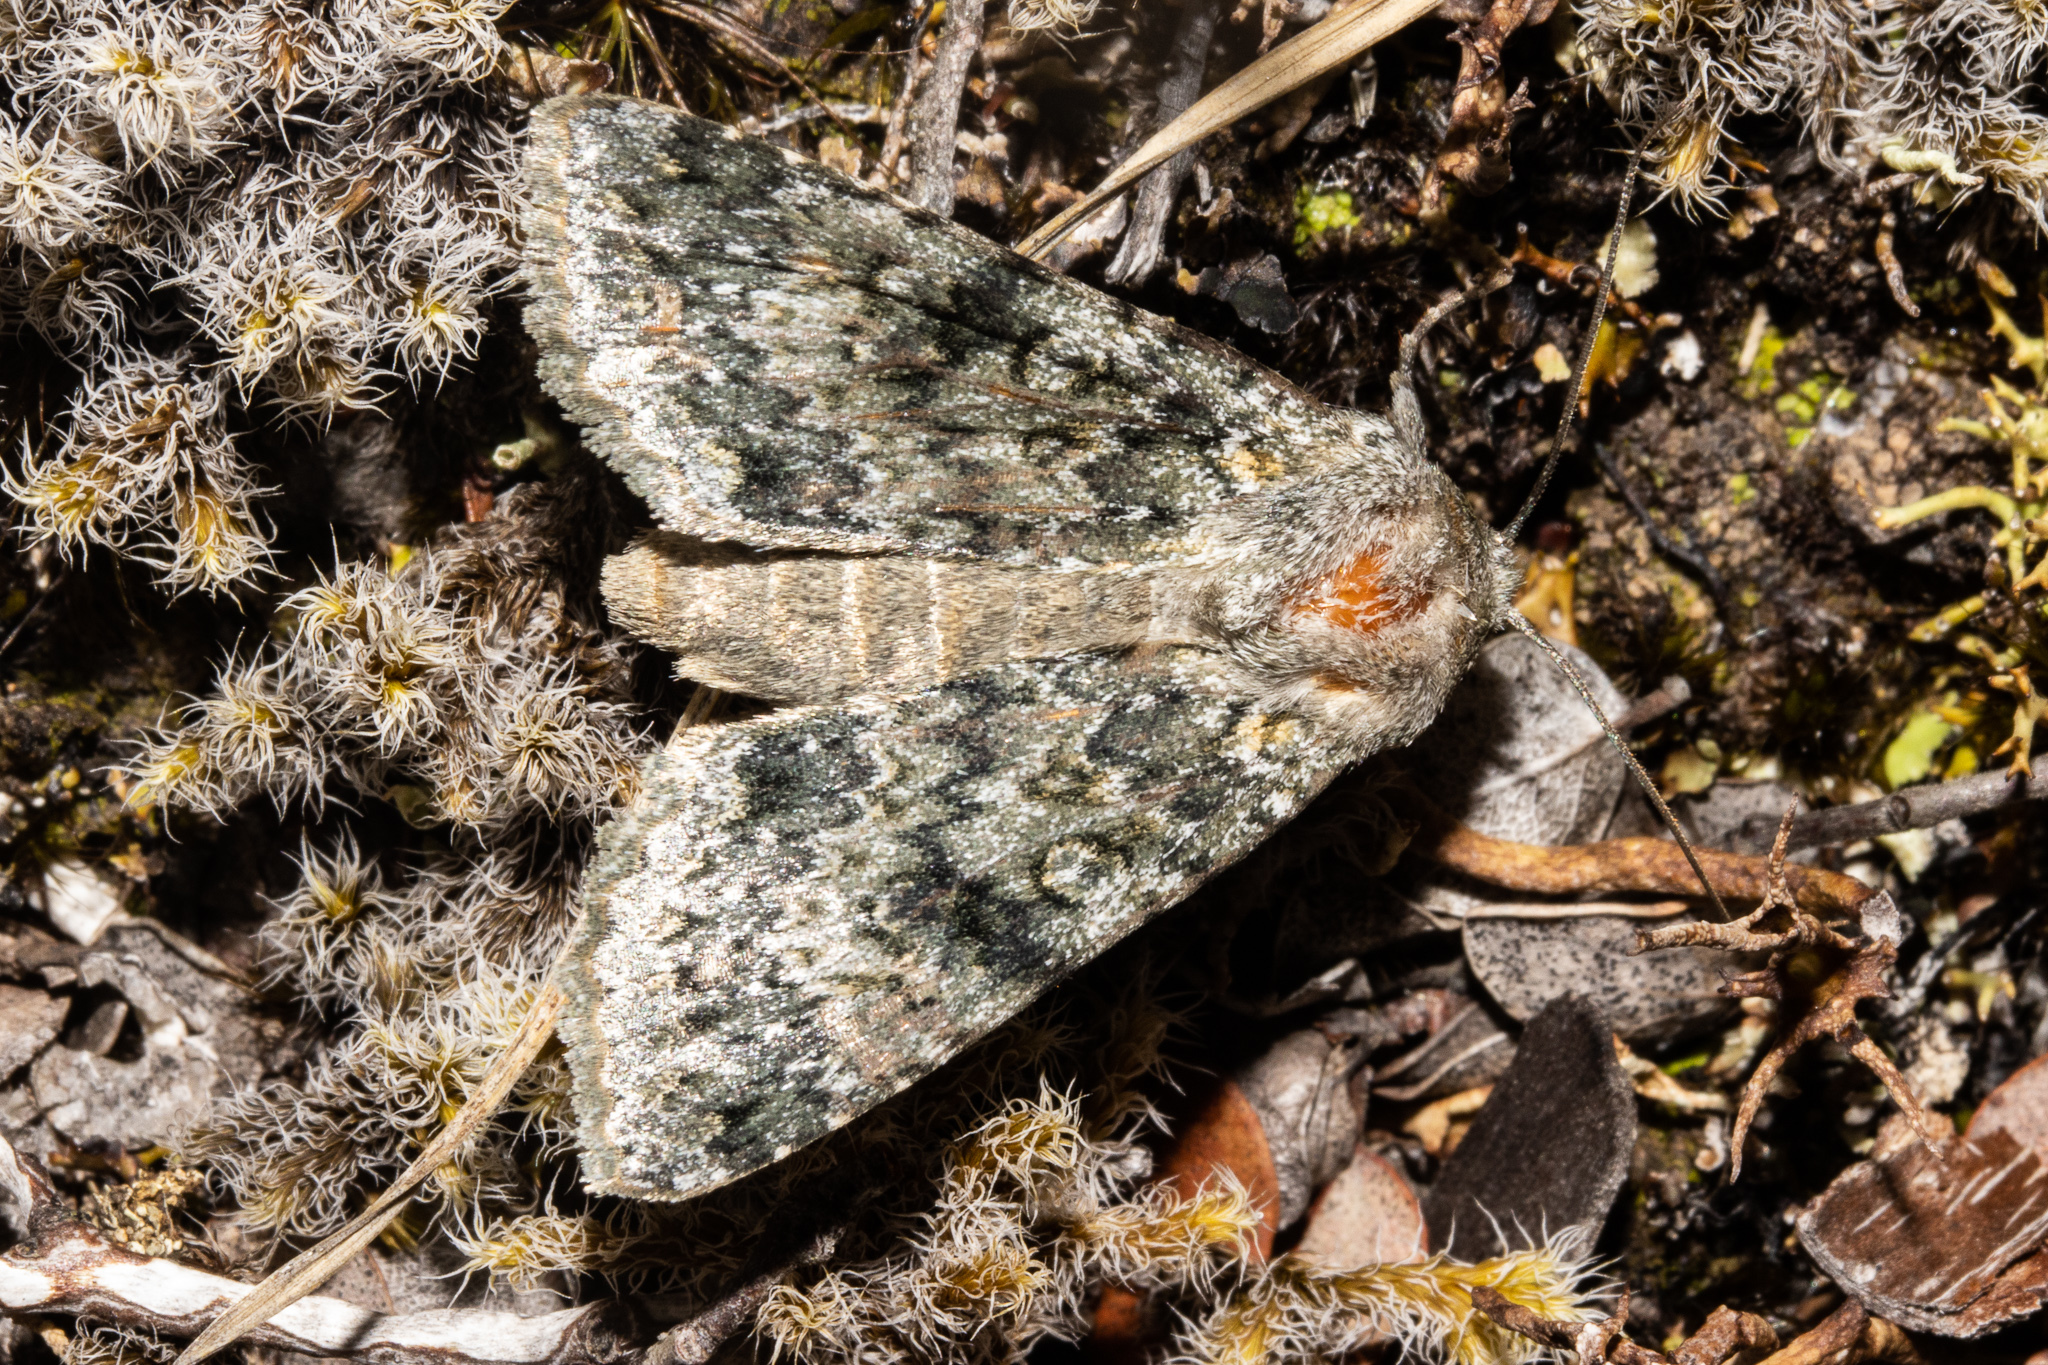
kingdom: Animalia
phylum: Arthropoda
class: Insecta
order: Lepidoptera
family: Noctuidae
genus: Ichneutica
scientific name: Ichneutica cuneata
